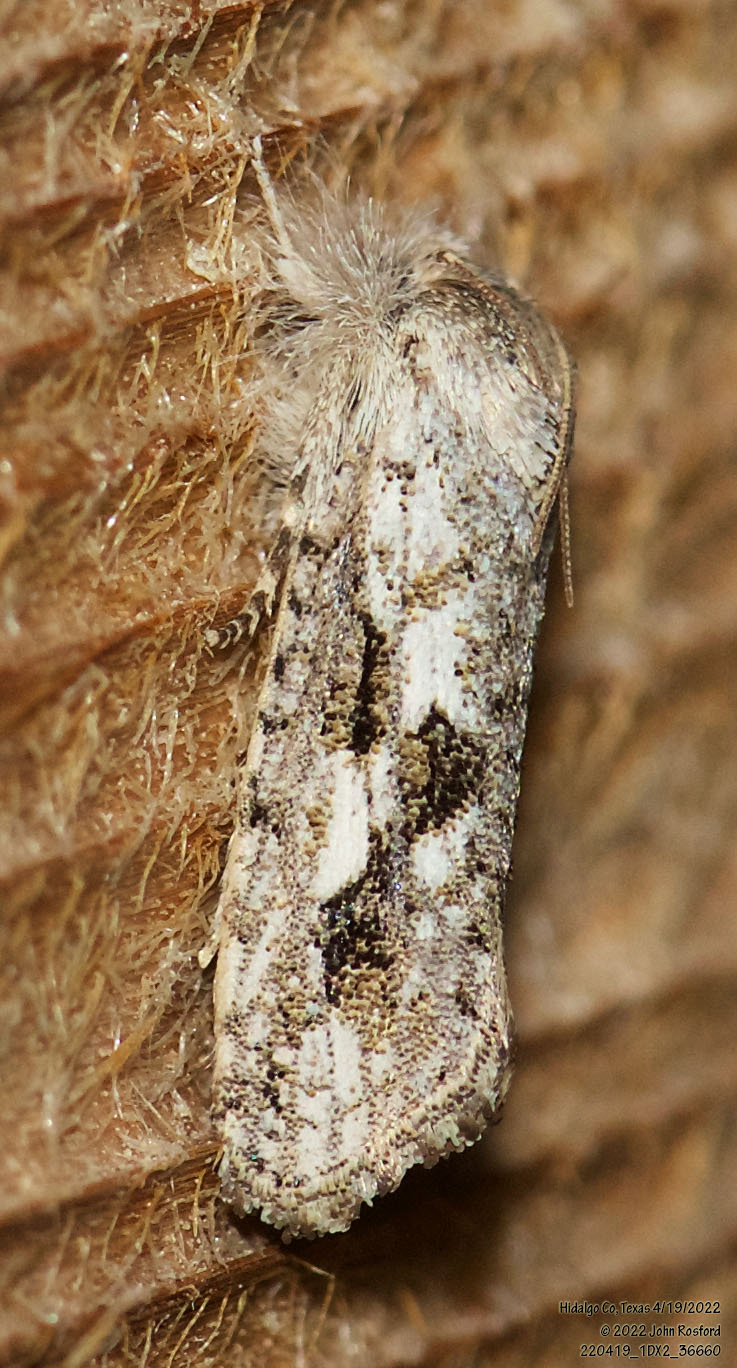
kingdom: Animalia
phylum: Arthropoda
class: Insecta
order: Lepidoptera
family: Tineidae
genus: Acrolophus
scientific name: Acrolophus griseus
